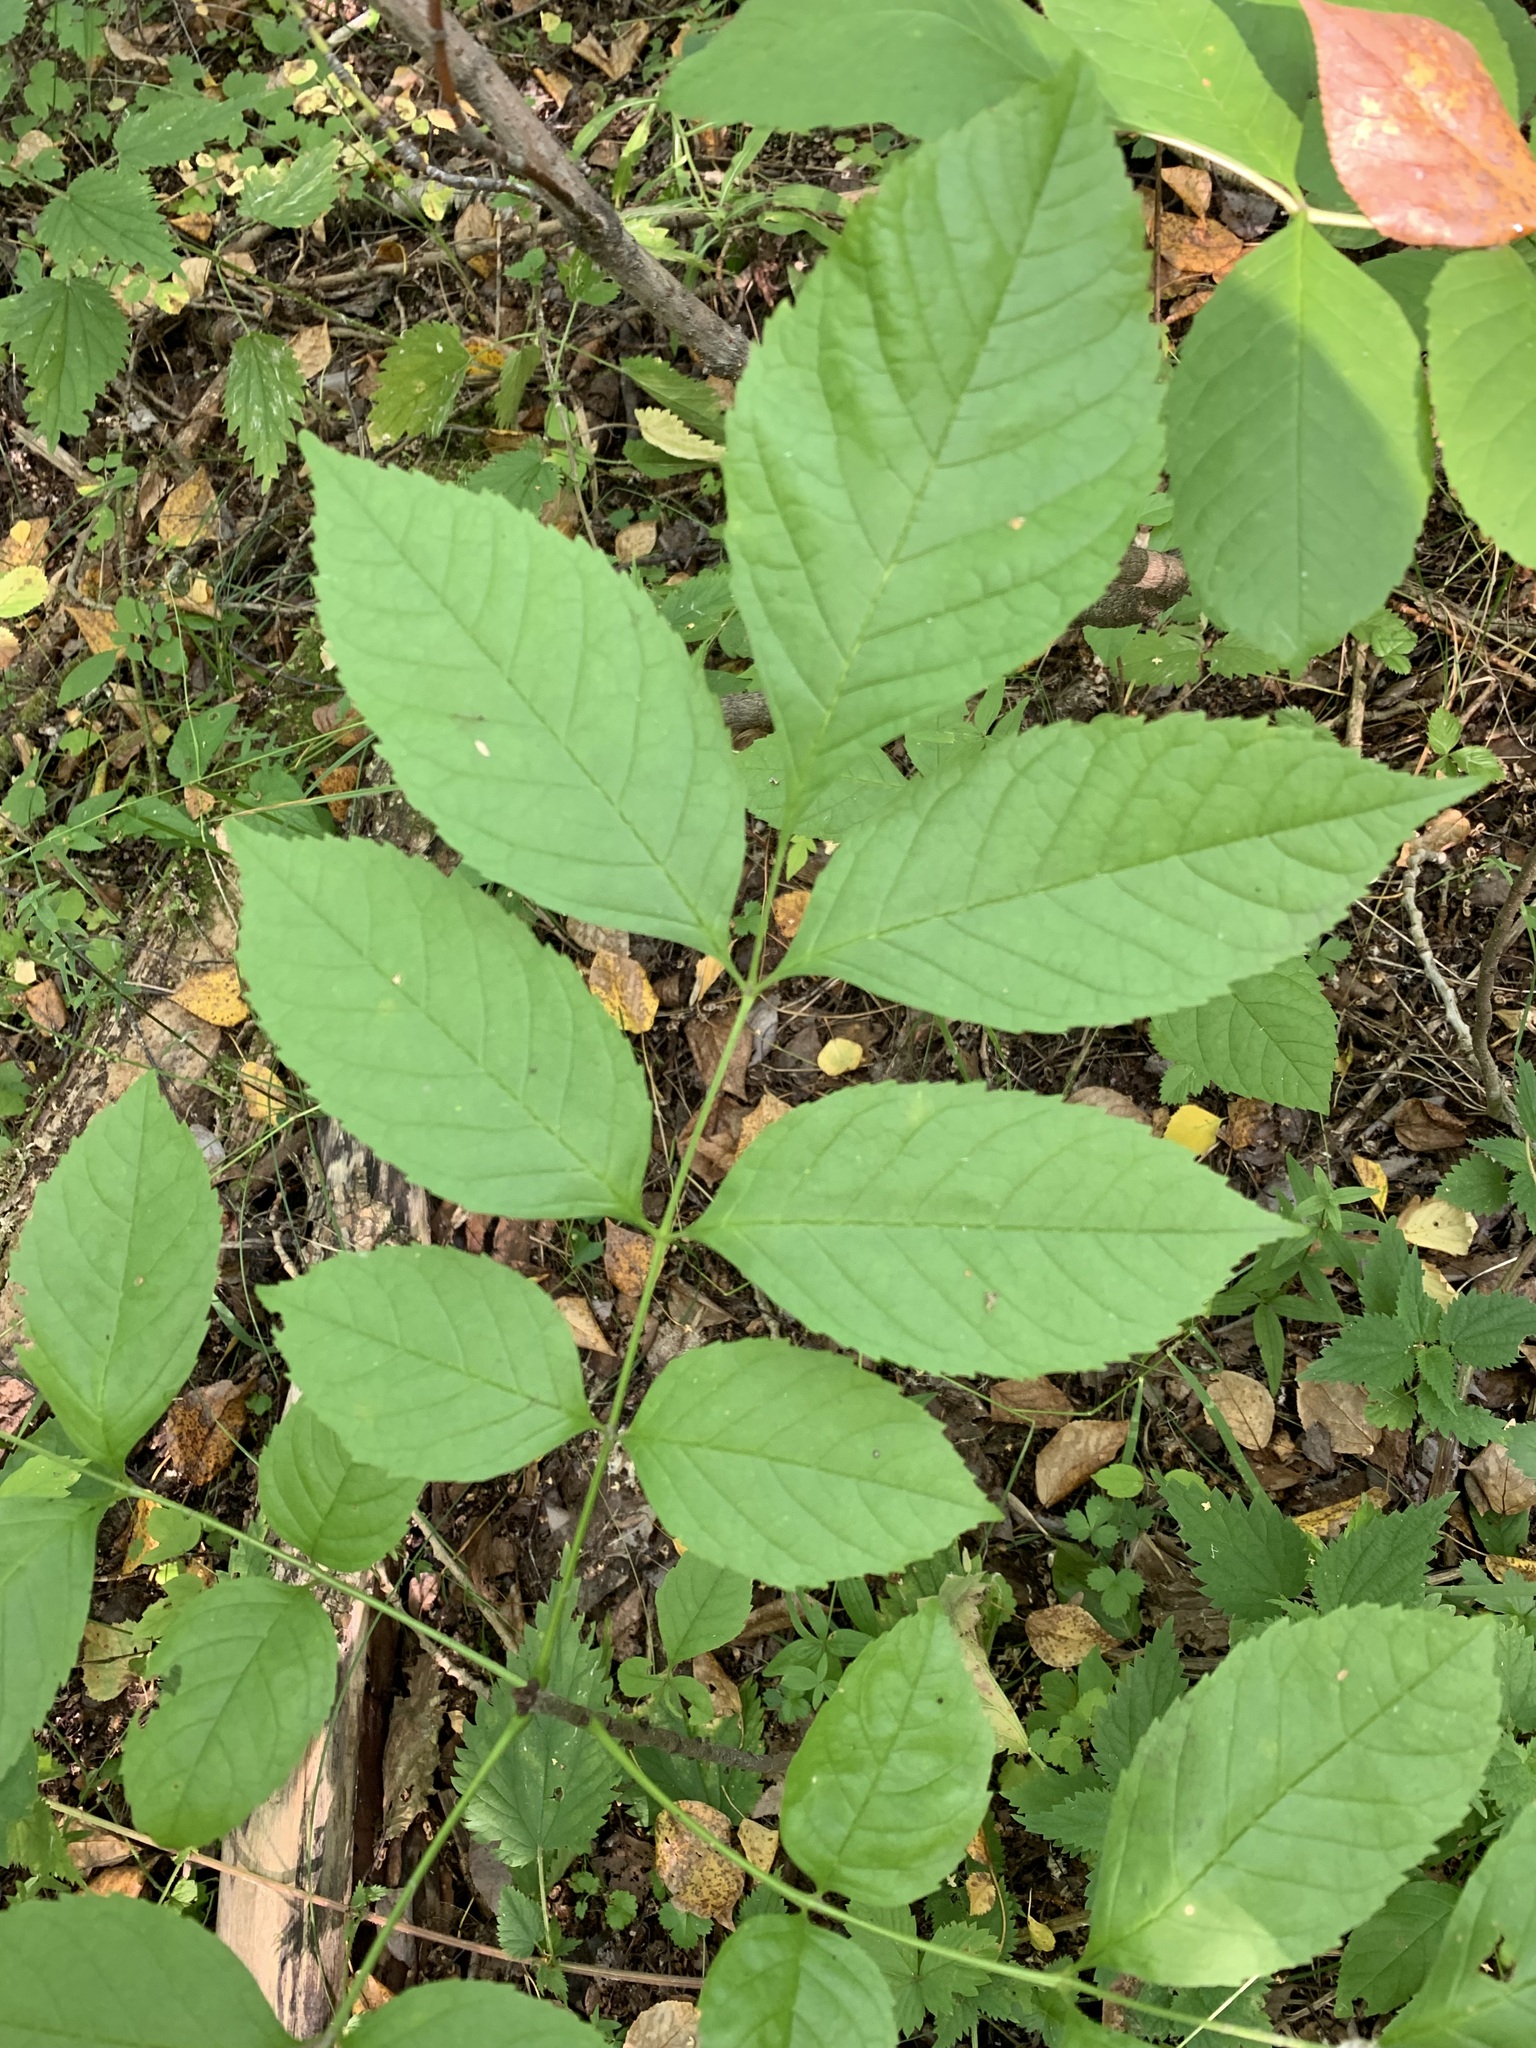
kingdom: Plantae
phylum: Tracheophyta
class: Magnoliopsida
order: Lamiales
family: Oleaceae
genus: Fraxinus
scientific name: Fraxinus pennsylvanica
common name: Green ash
